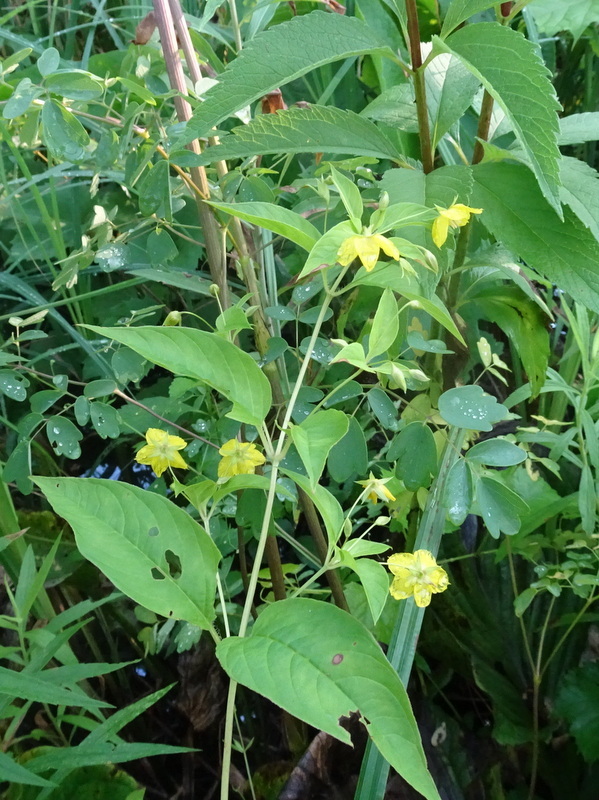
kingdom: Plantae
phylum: Tracheophyta
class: Magnoliopsida
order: Ericales
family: Primulaceae
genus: Lysimachia
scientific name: Lysimachia ciliata
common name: Fringed loosestrife
